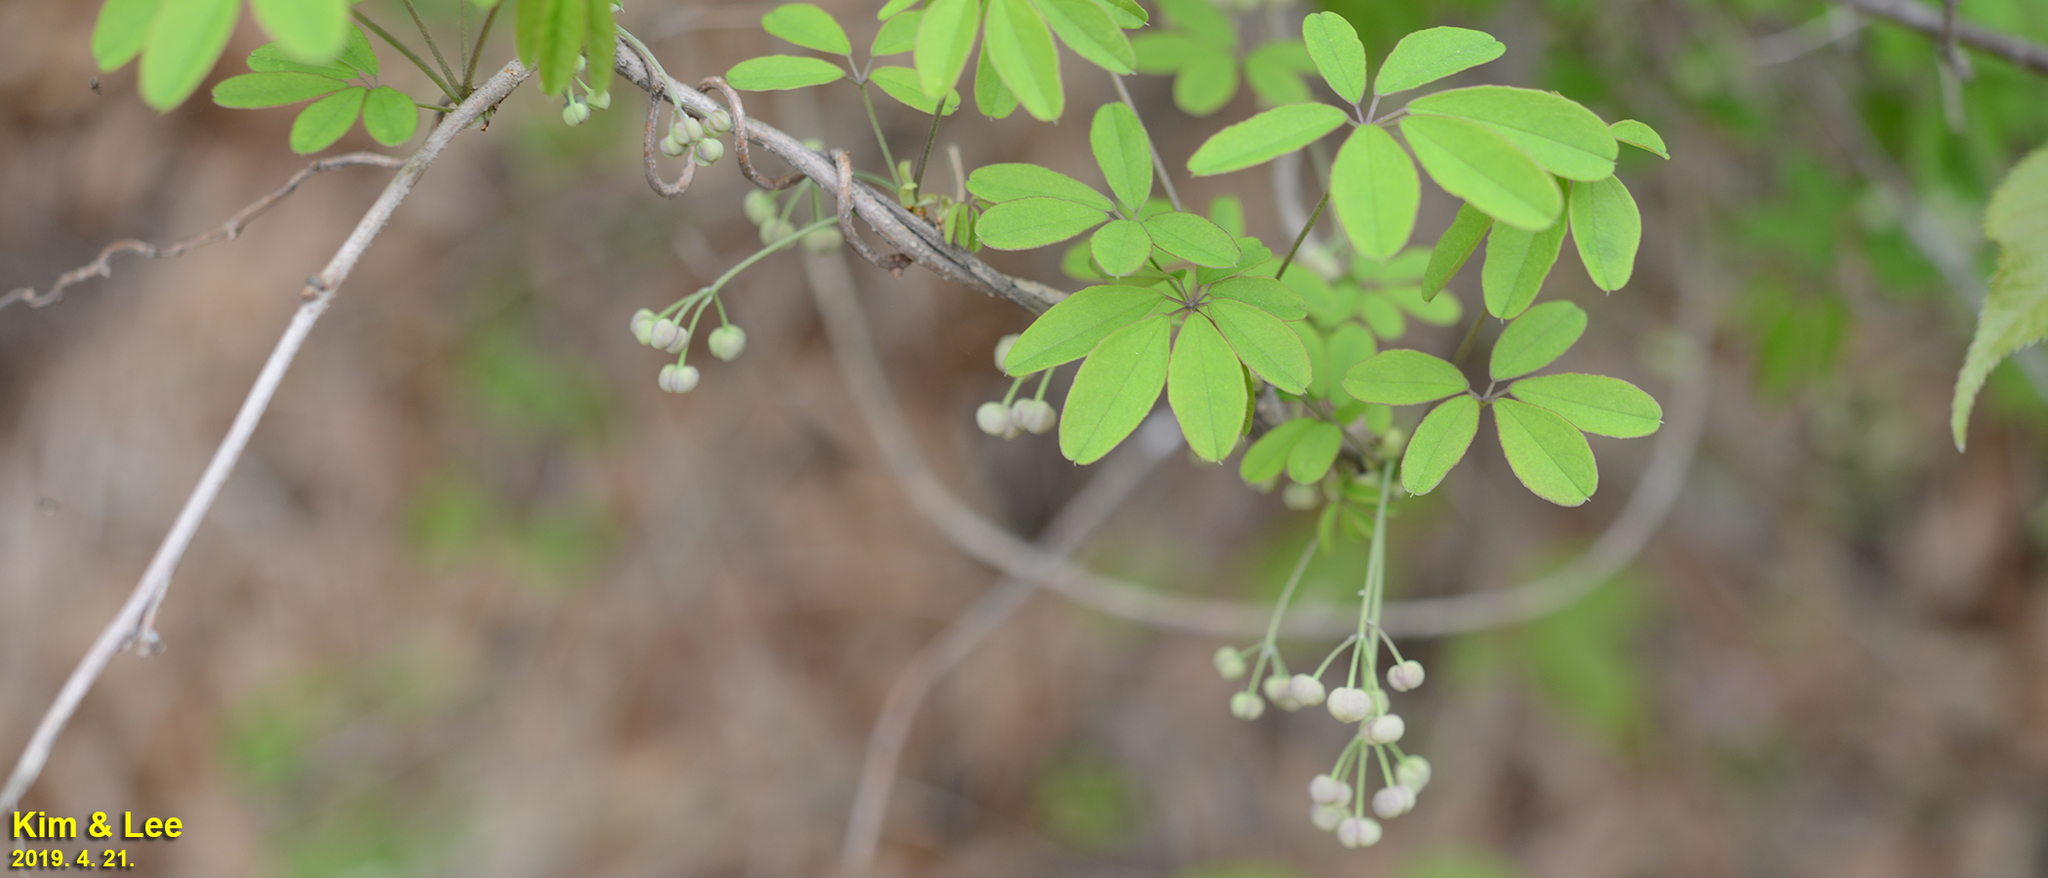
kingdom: Plantae
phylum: Tracheophyta
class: Magnoliopsida
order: Ranunculales
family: Lardizabalaceae
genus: Akebia
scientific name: Akebia quinata
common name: Five-leaf akebia
